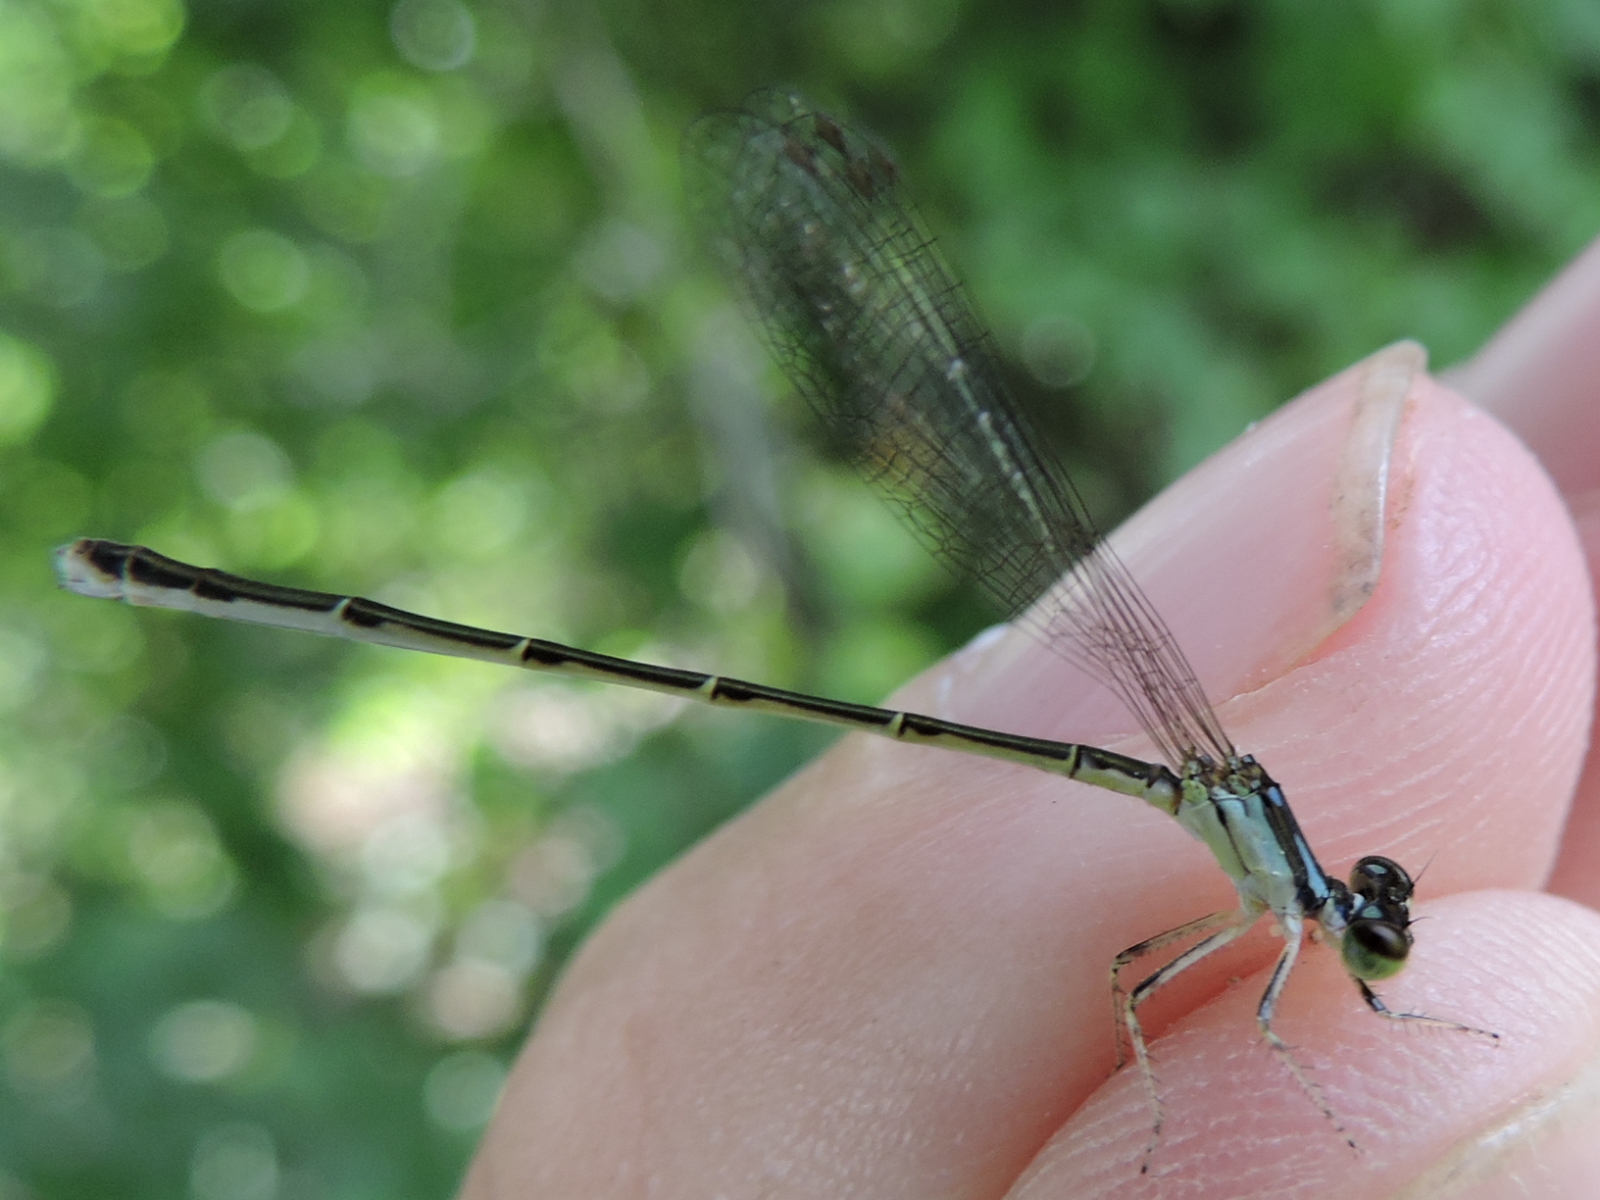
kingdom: Animalia
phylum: Arthropoda
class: Insecta
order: Odonata
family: Coenagrionidae
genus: Ischnura
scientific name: Ischnura posita
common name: Fragile forktail
